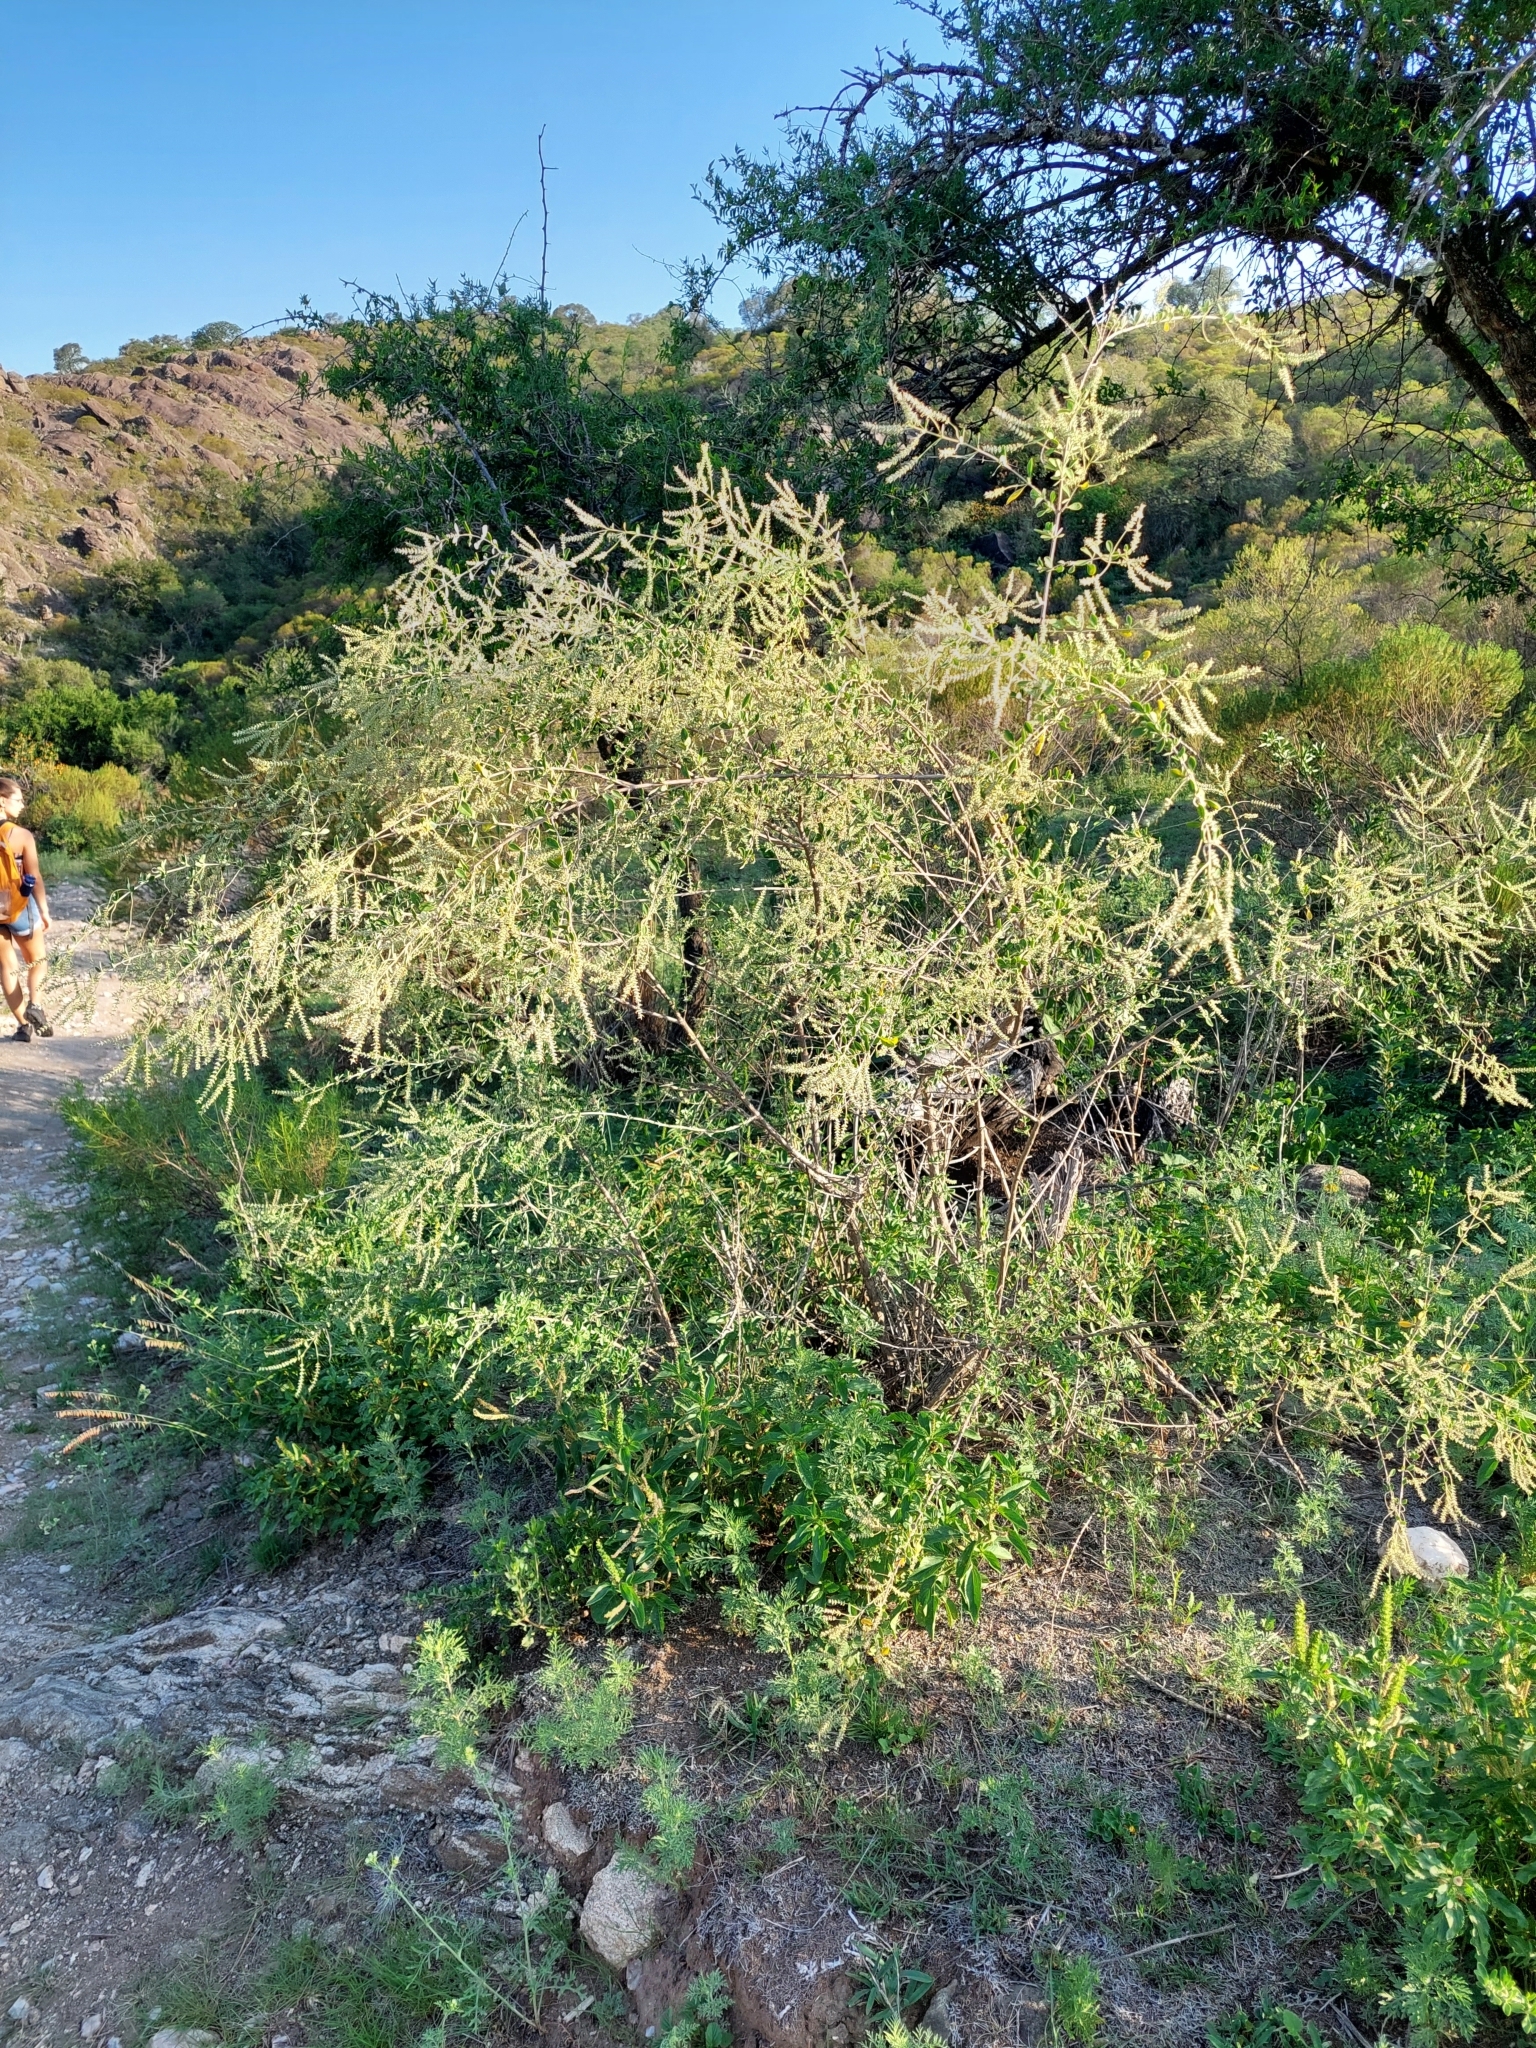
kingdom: Plantae
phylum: Tracheophyta
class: Magnoliopsida
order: Lamiales
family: Verbenaceae
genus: Aloysia
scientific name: Aloysia gratissima
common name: Common bee-brush
